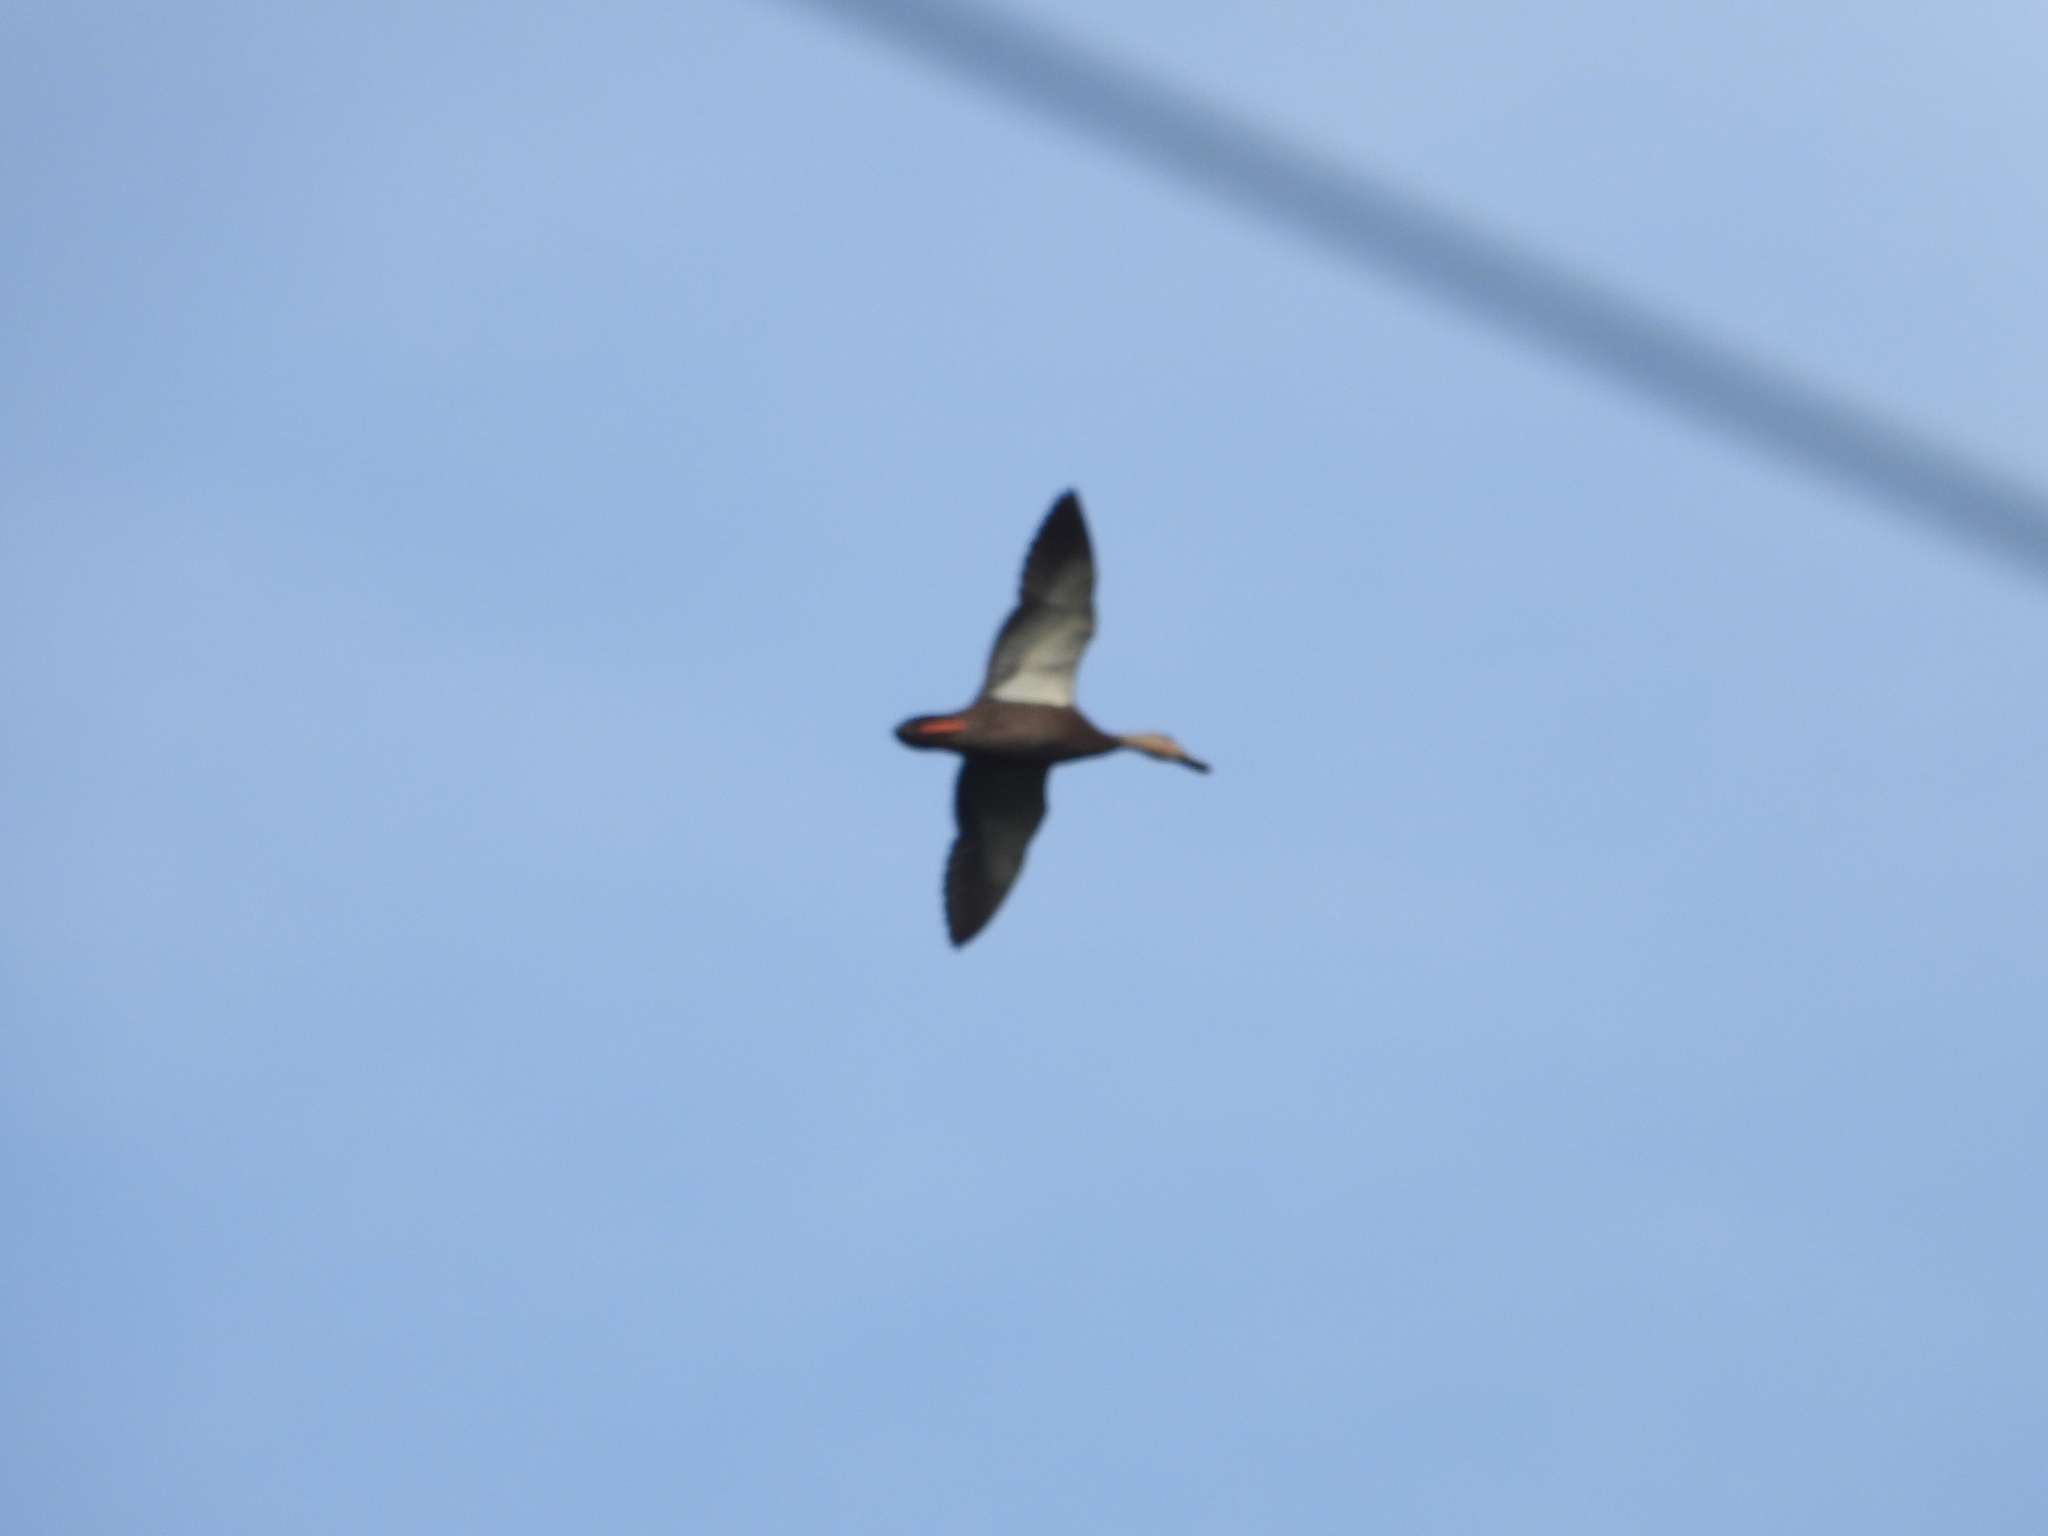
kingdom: Animalia
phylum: Chordata
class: Aves
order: Anseriformes
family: Anatidae
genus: Anas
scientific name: Anas diazi
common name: Mexican duck
